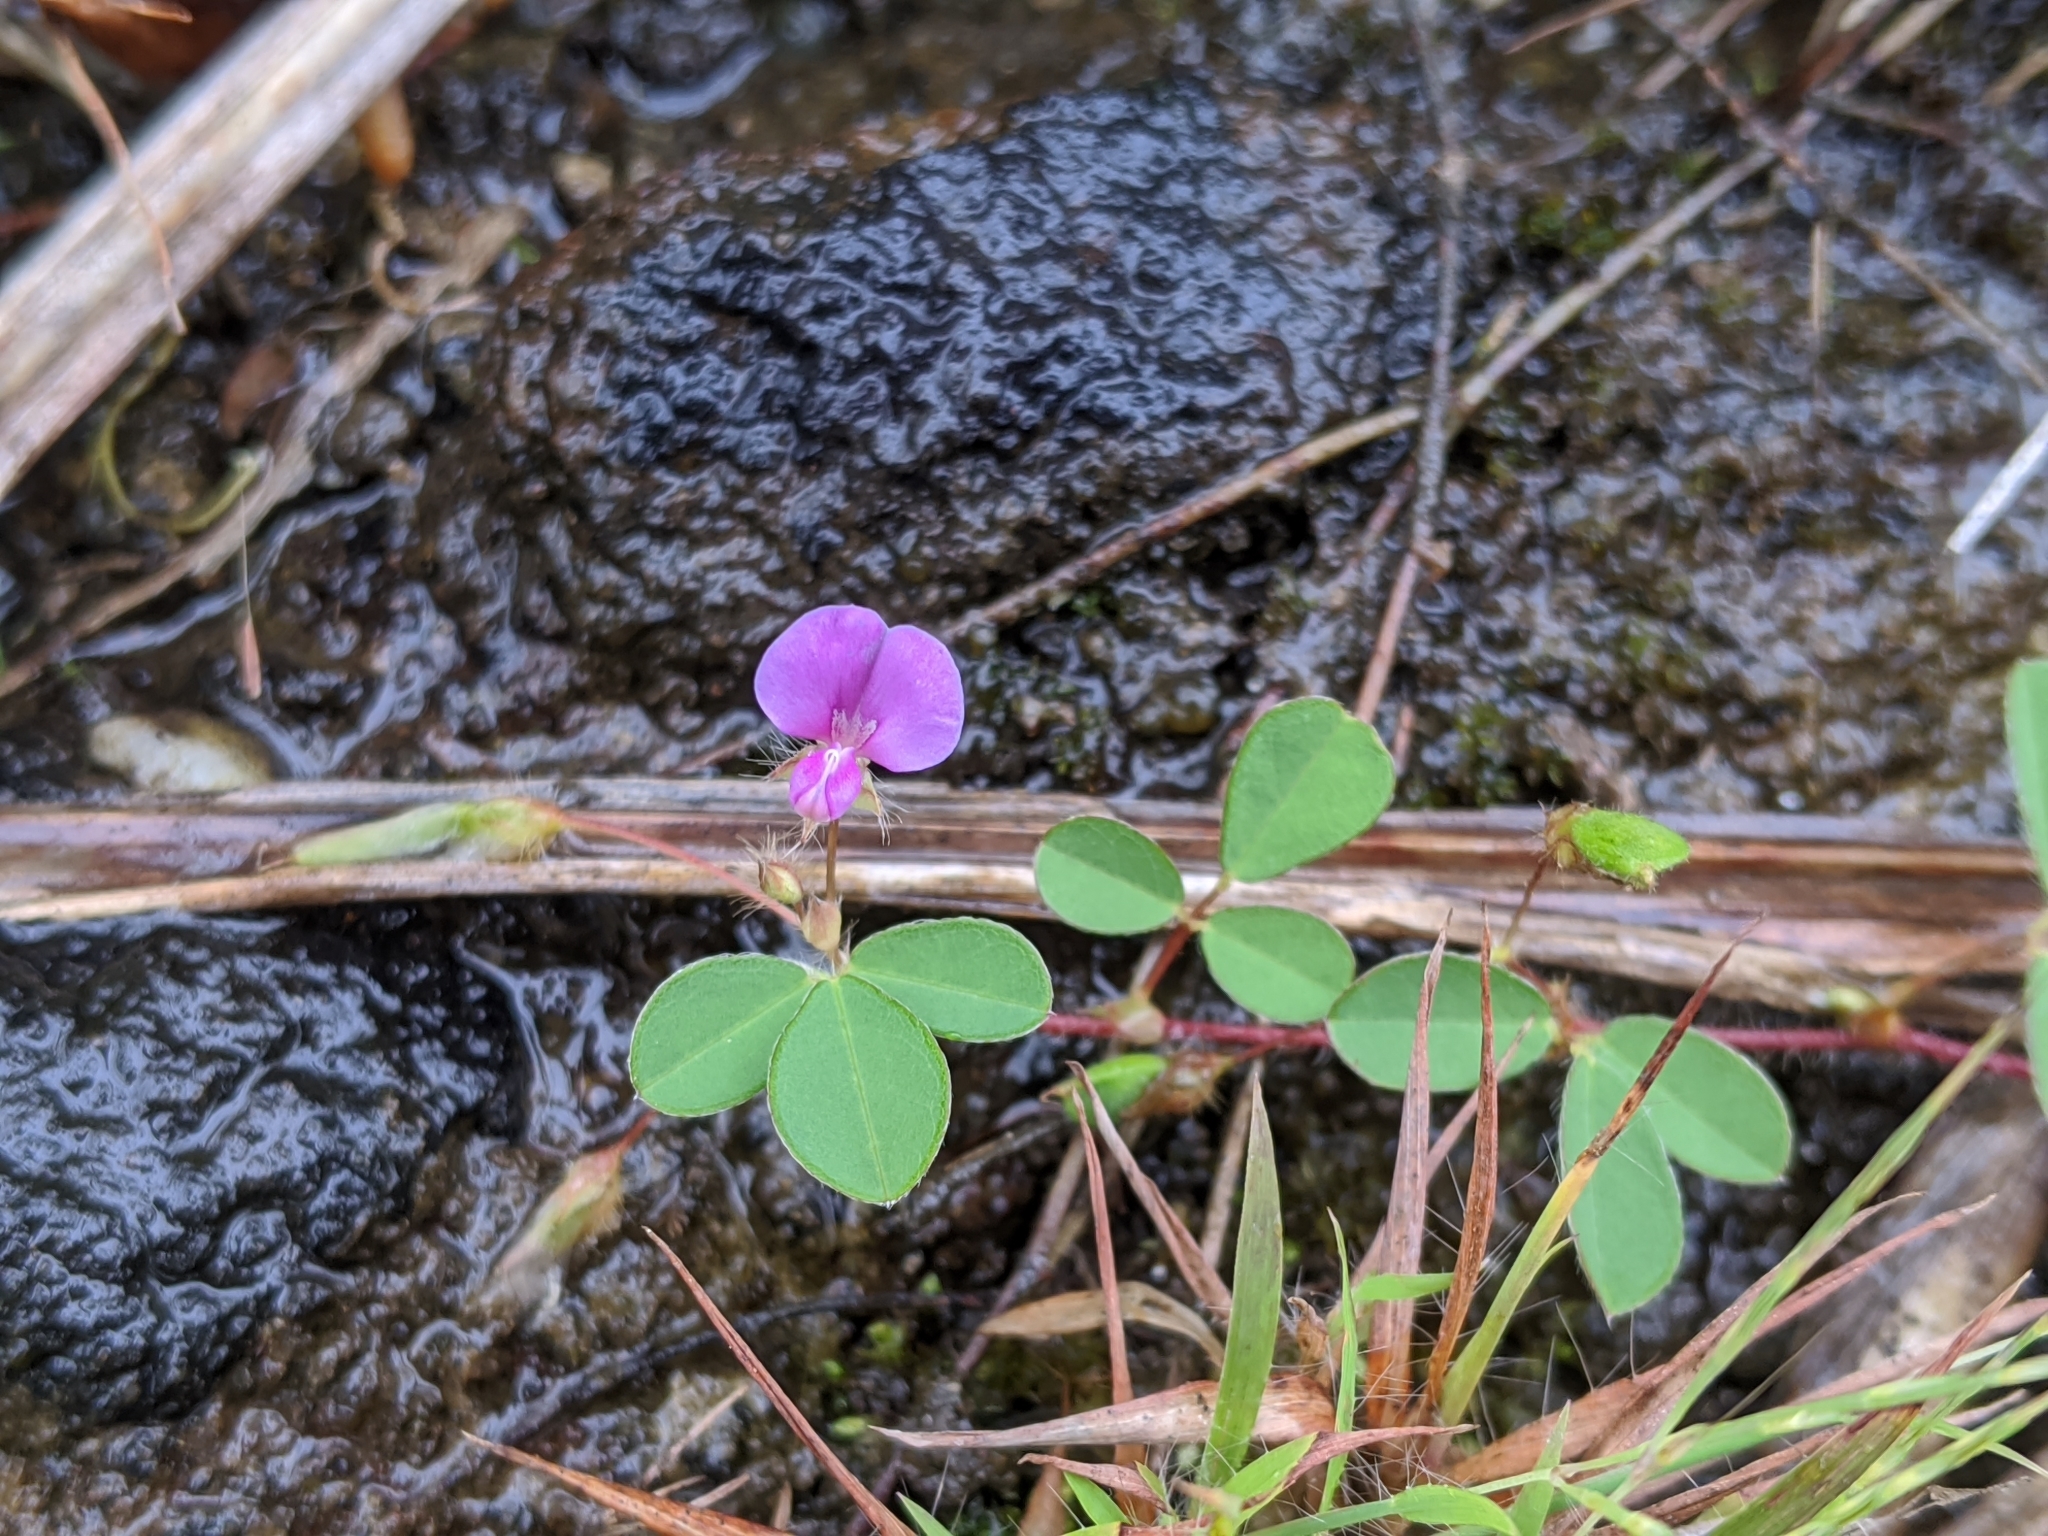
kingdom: Plantae
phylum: Tracheophyta
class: Magnoliopsida
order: Fabales
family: Fabaceae
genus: Grona
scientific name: Grona triflora
